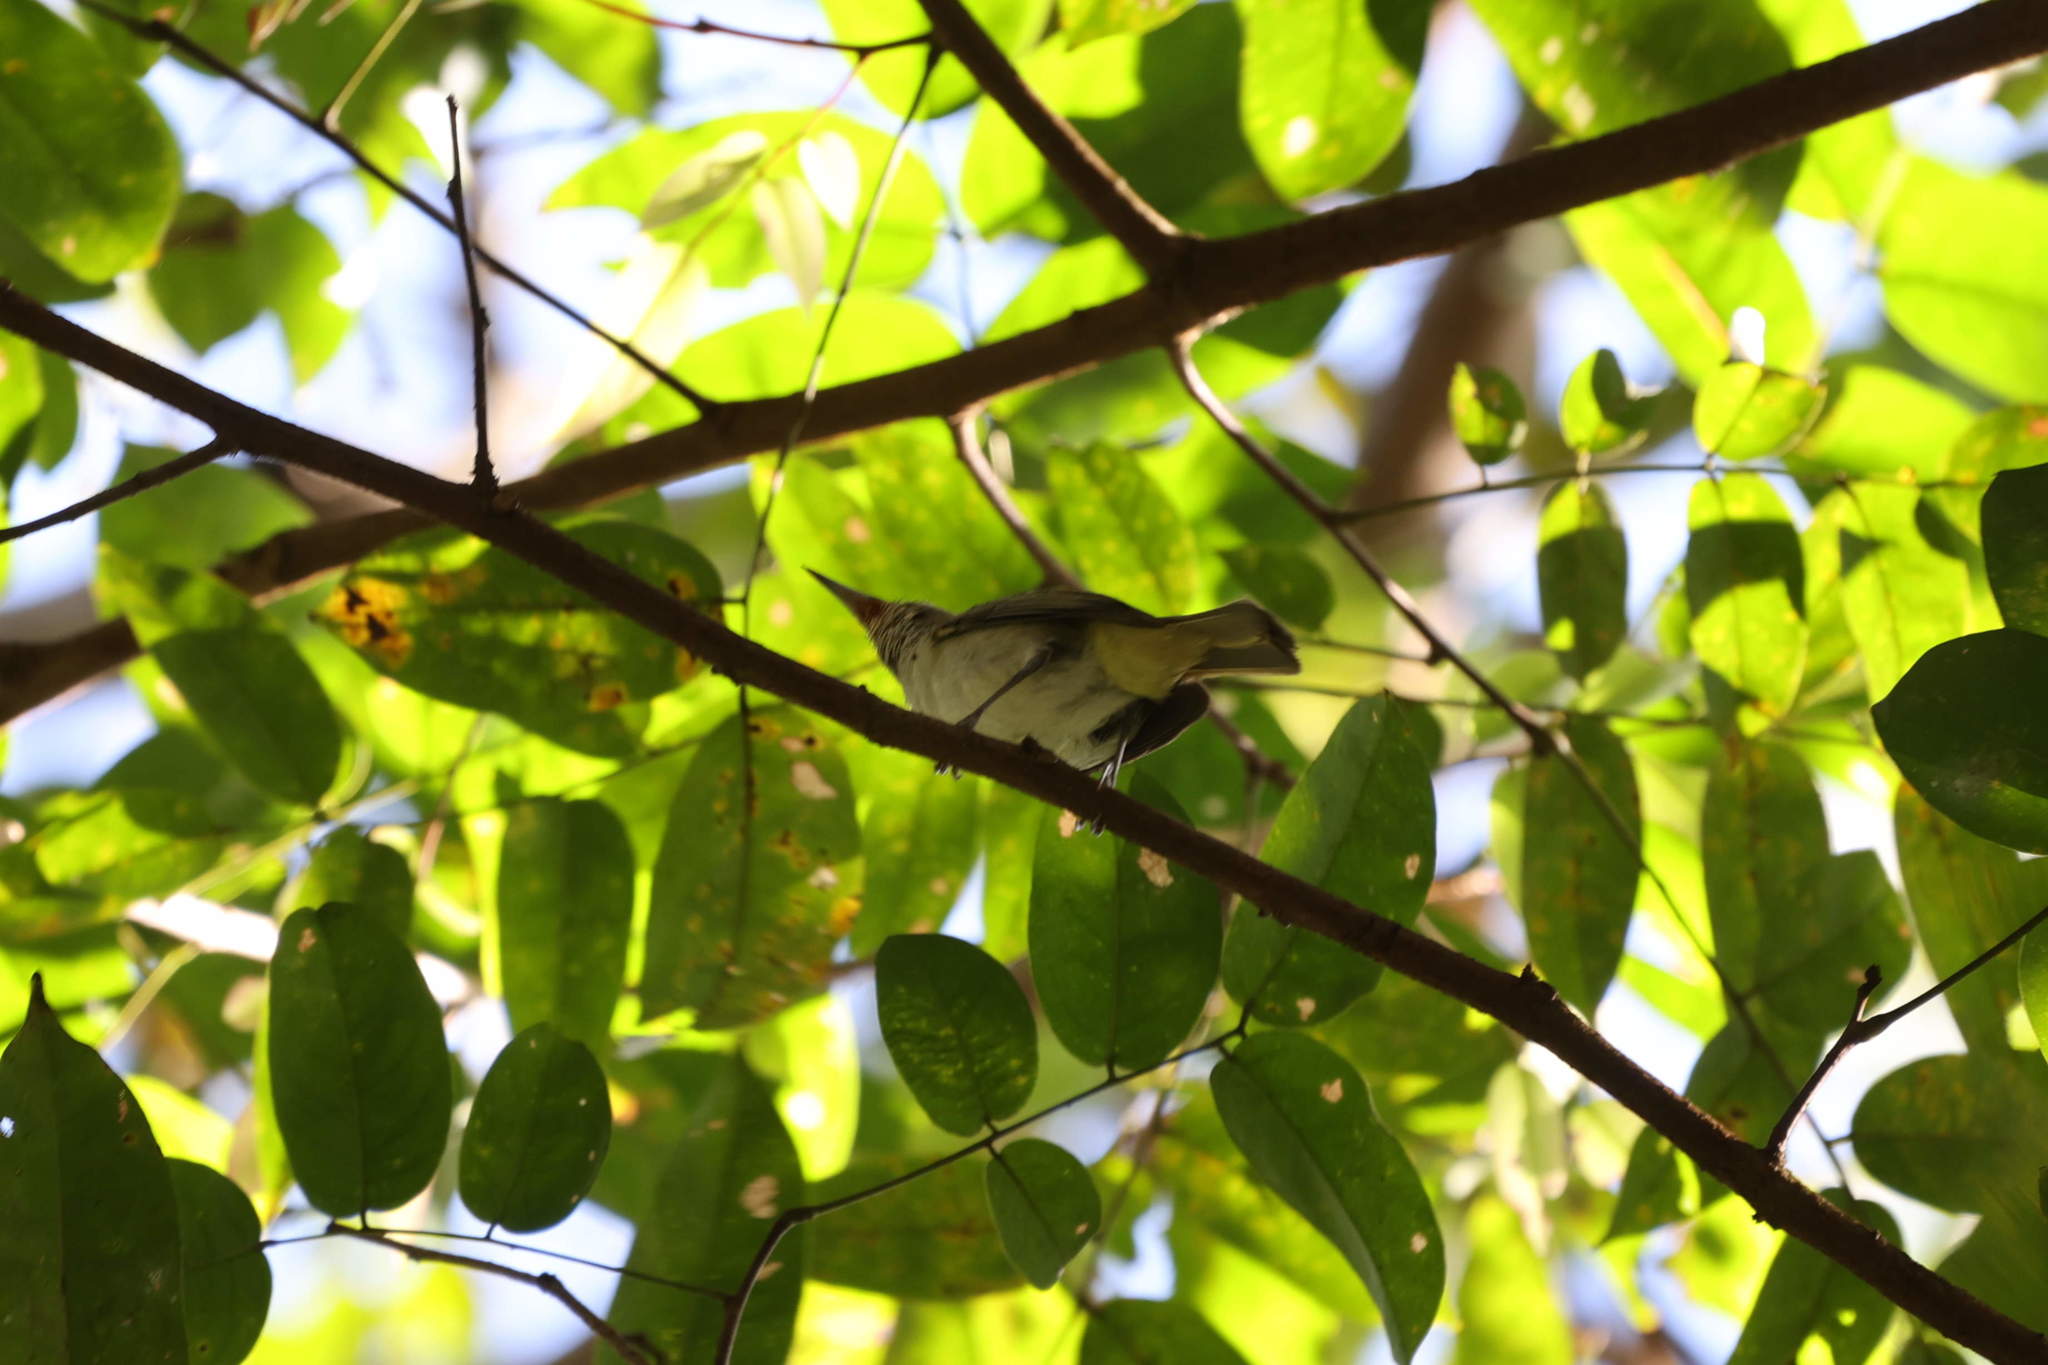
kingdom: Animalia
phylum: Chordata
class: Aves
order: Passeriformes
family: Vireonidae
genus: Vireo
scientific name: Vireo altiloquus
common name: Black-whiskered vireo
